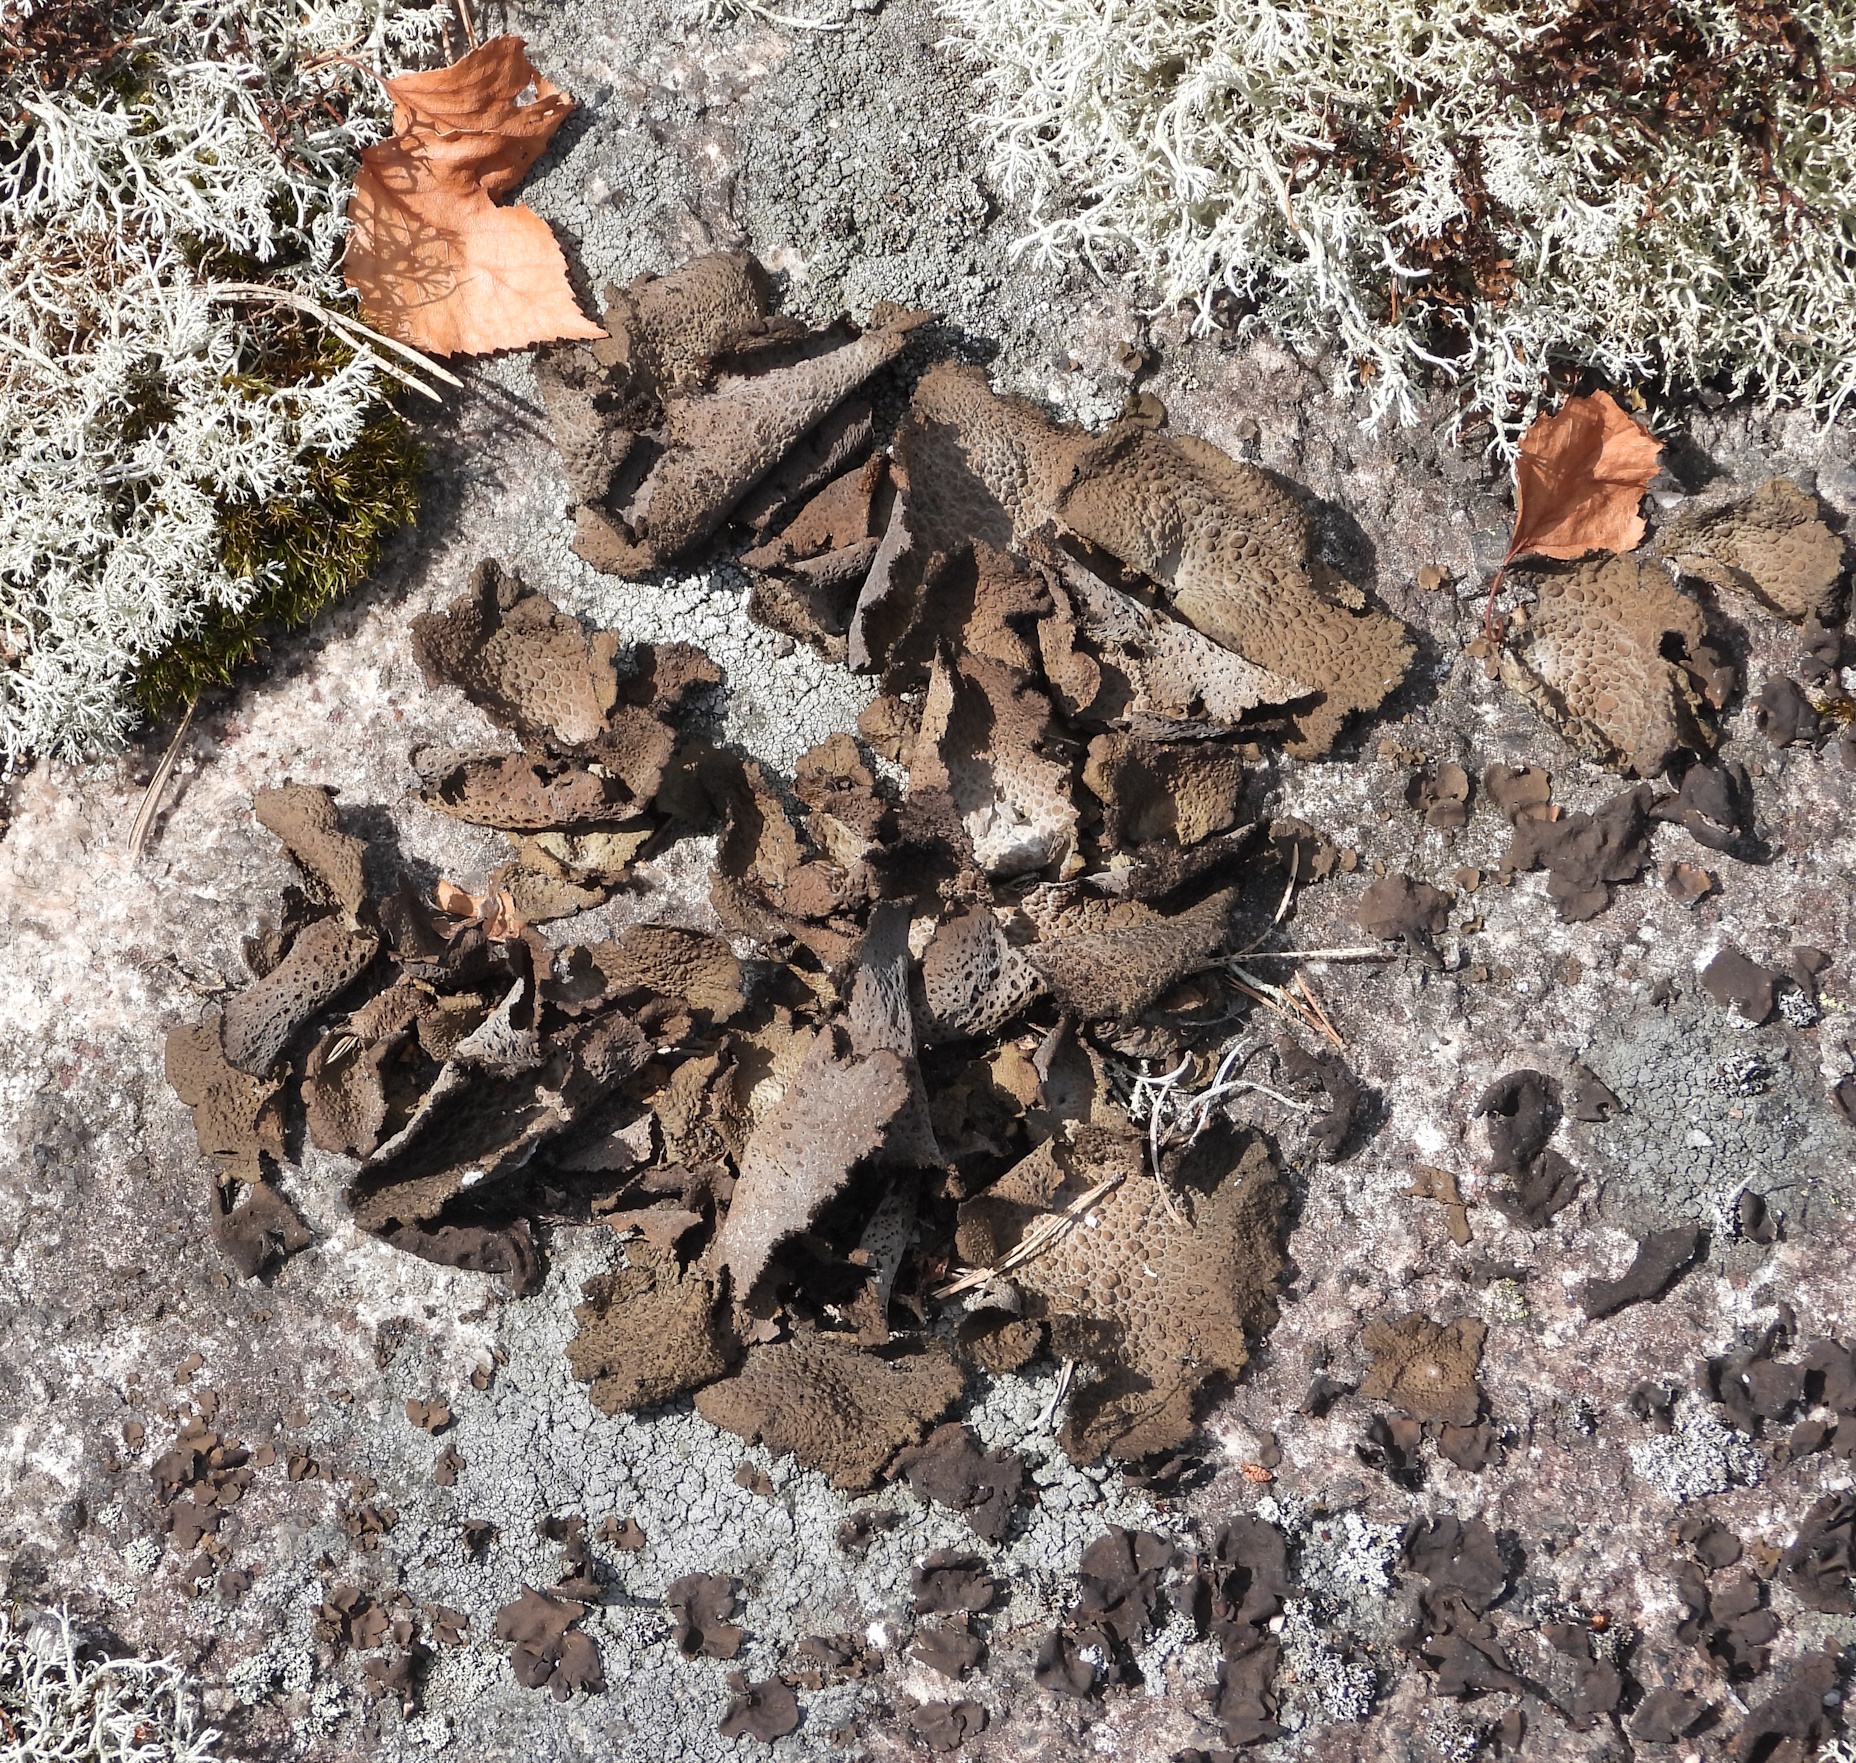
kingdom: Fungi
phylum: Ascomycota
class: Lecanoromycetes
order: Umbilicariales
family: Umbilicariaceae
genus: Lasallia
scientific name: Lasallia pustulata
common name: Blistered toadskin lichen
